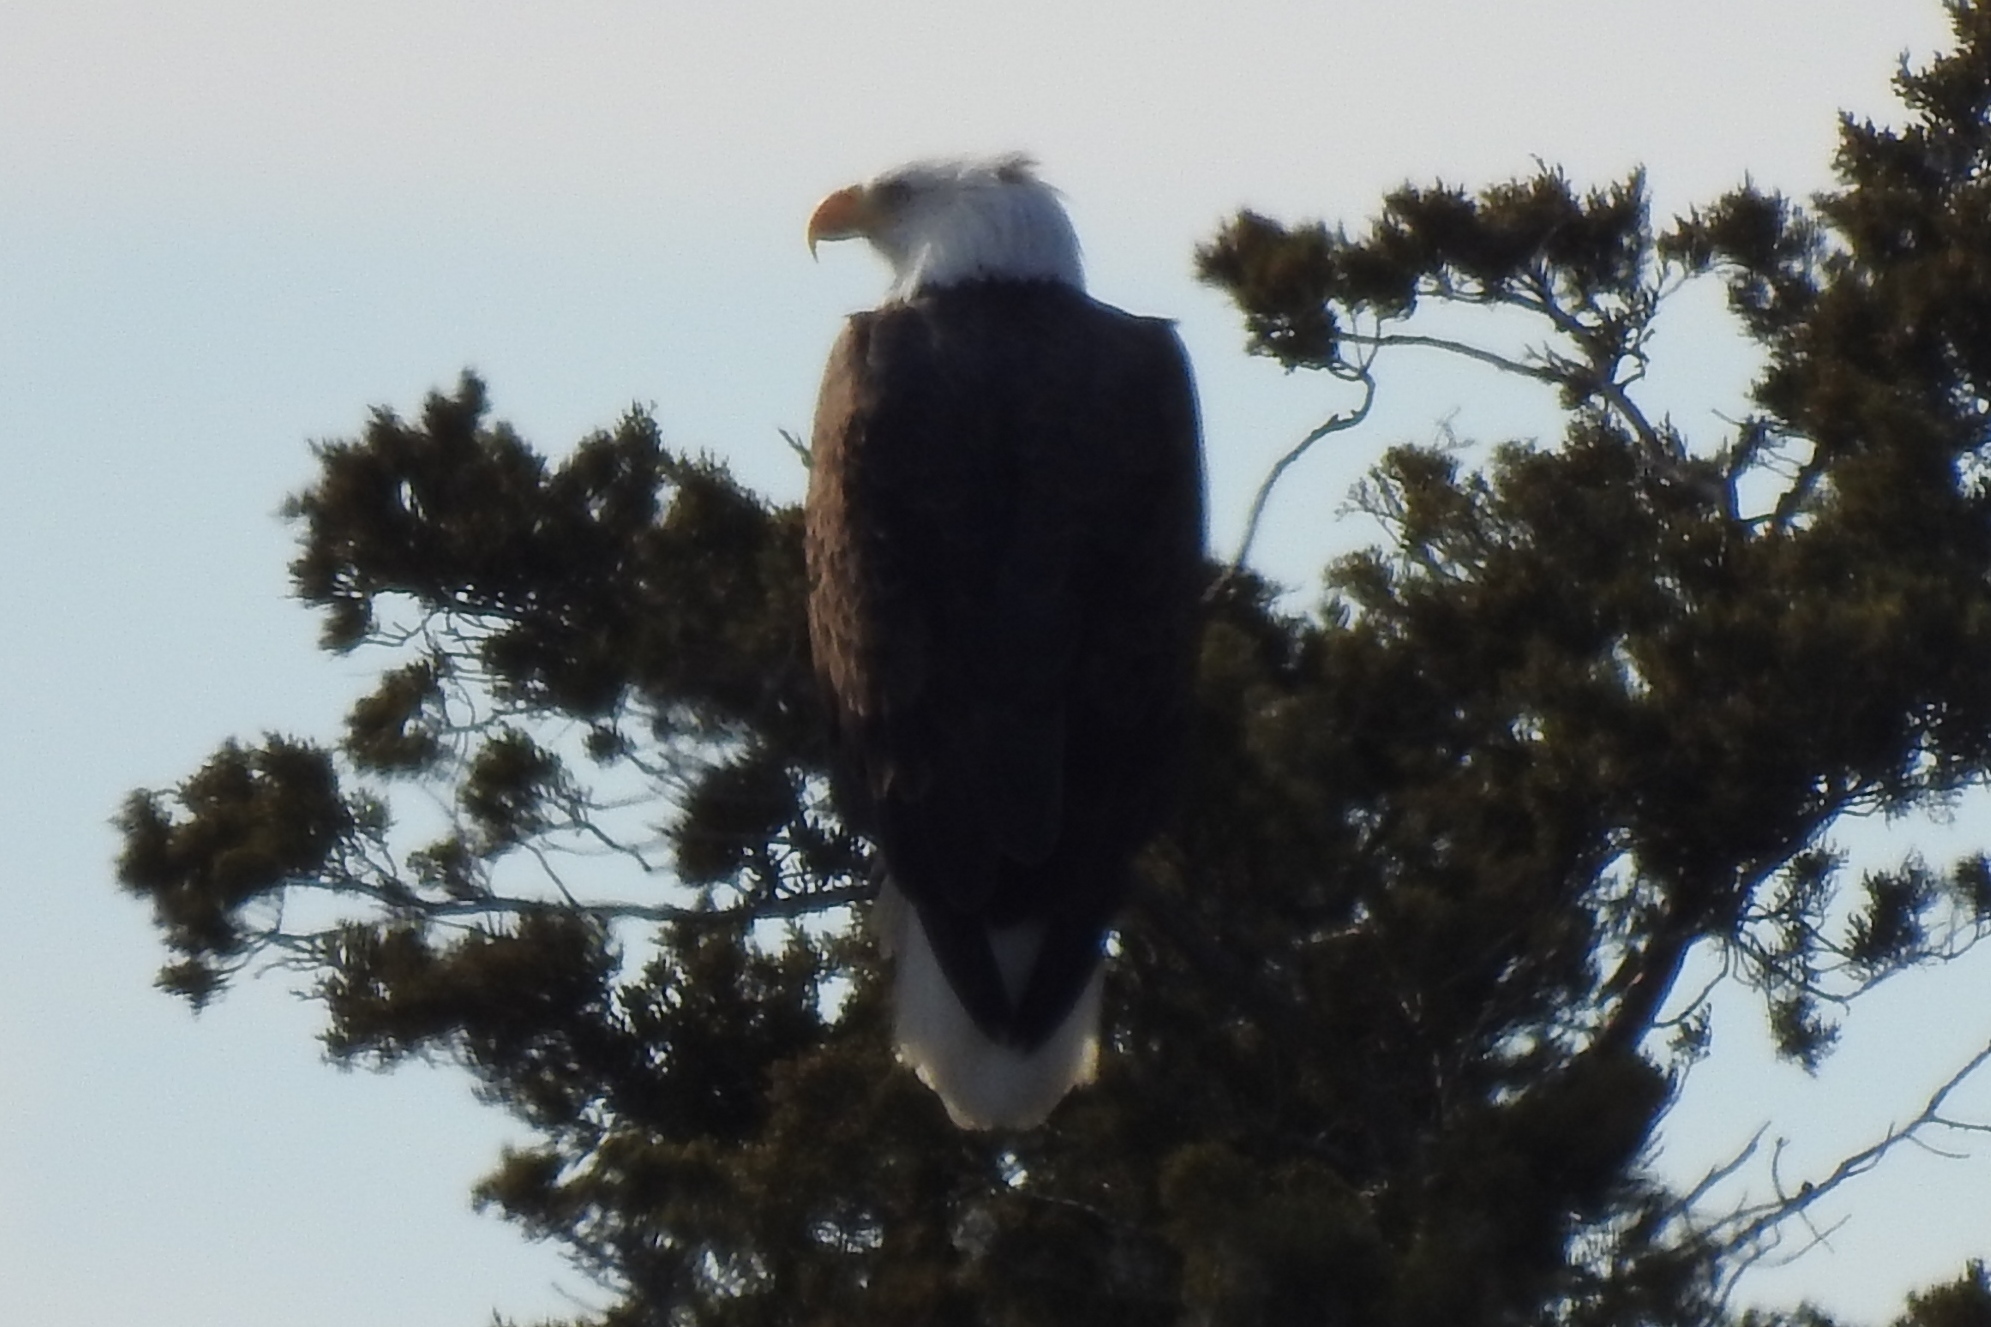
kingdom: Animalia
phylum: Chordata
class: Aves
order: Accipitriformes
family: Accipitridae
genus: Haliaeetus
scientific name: Haliaeetus leucocephalus
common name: Bald eagle
